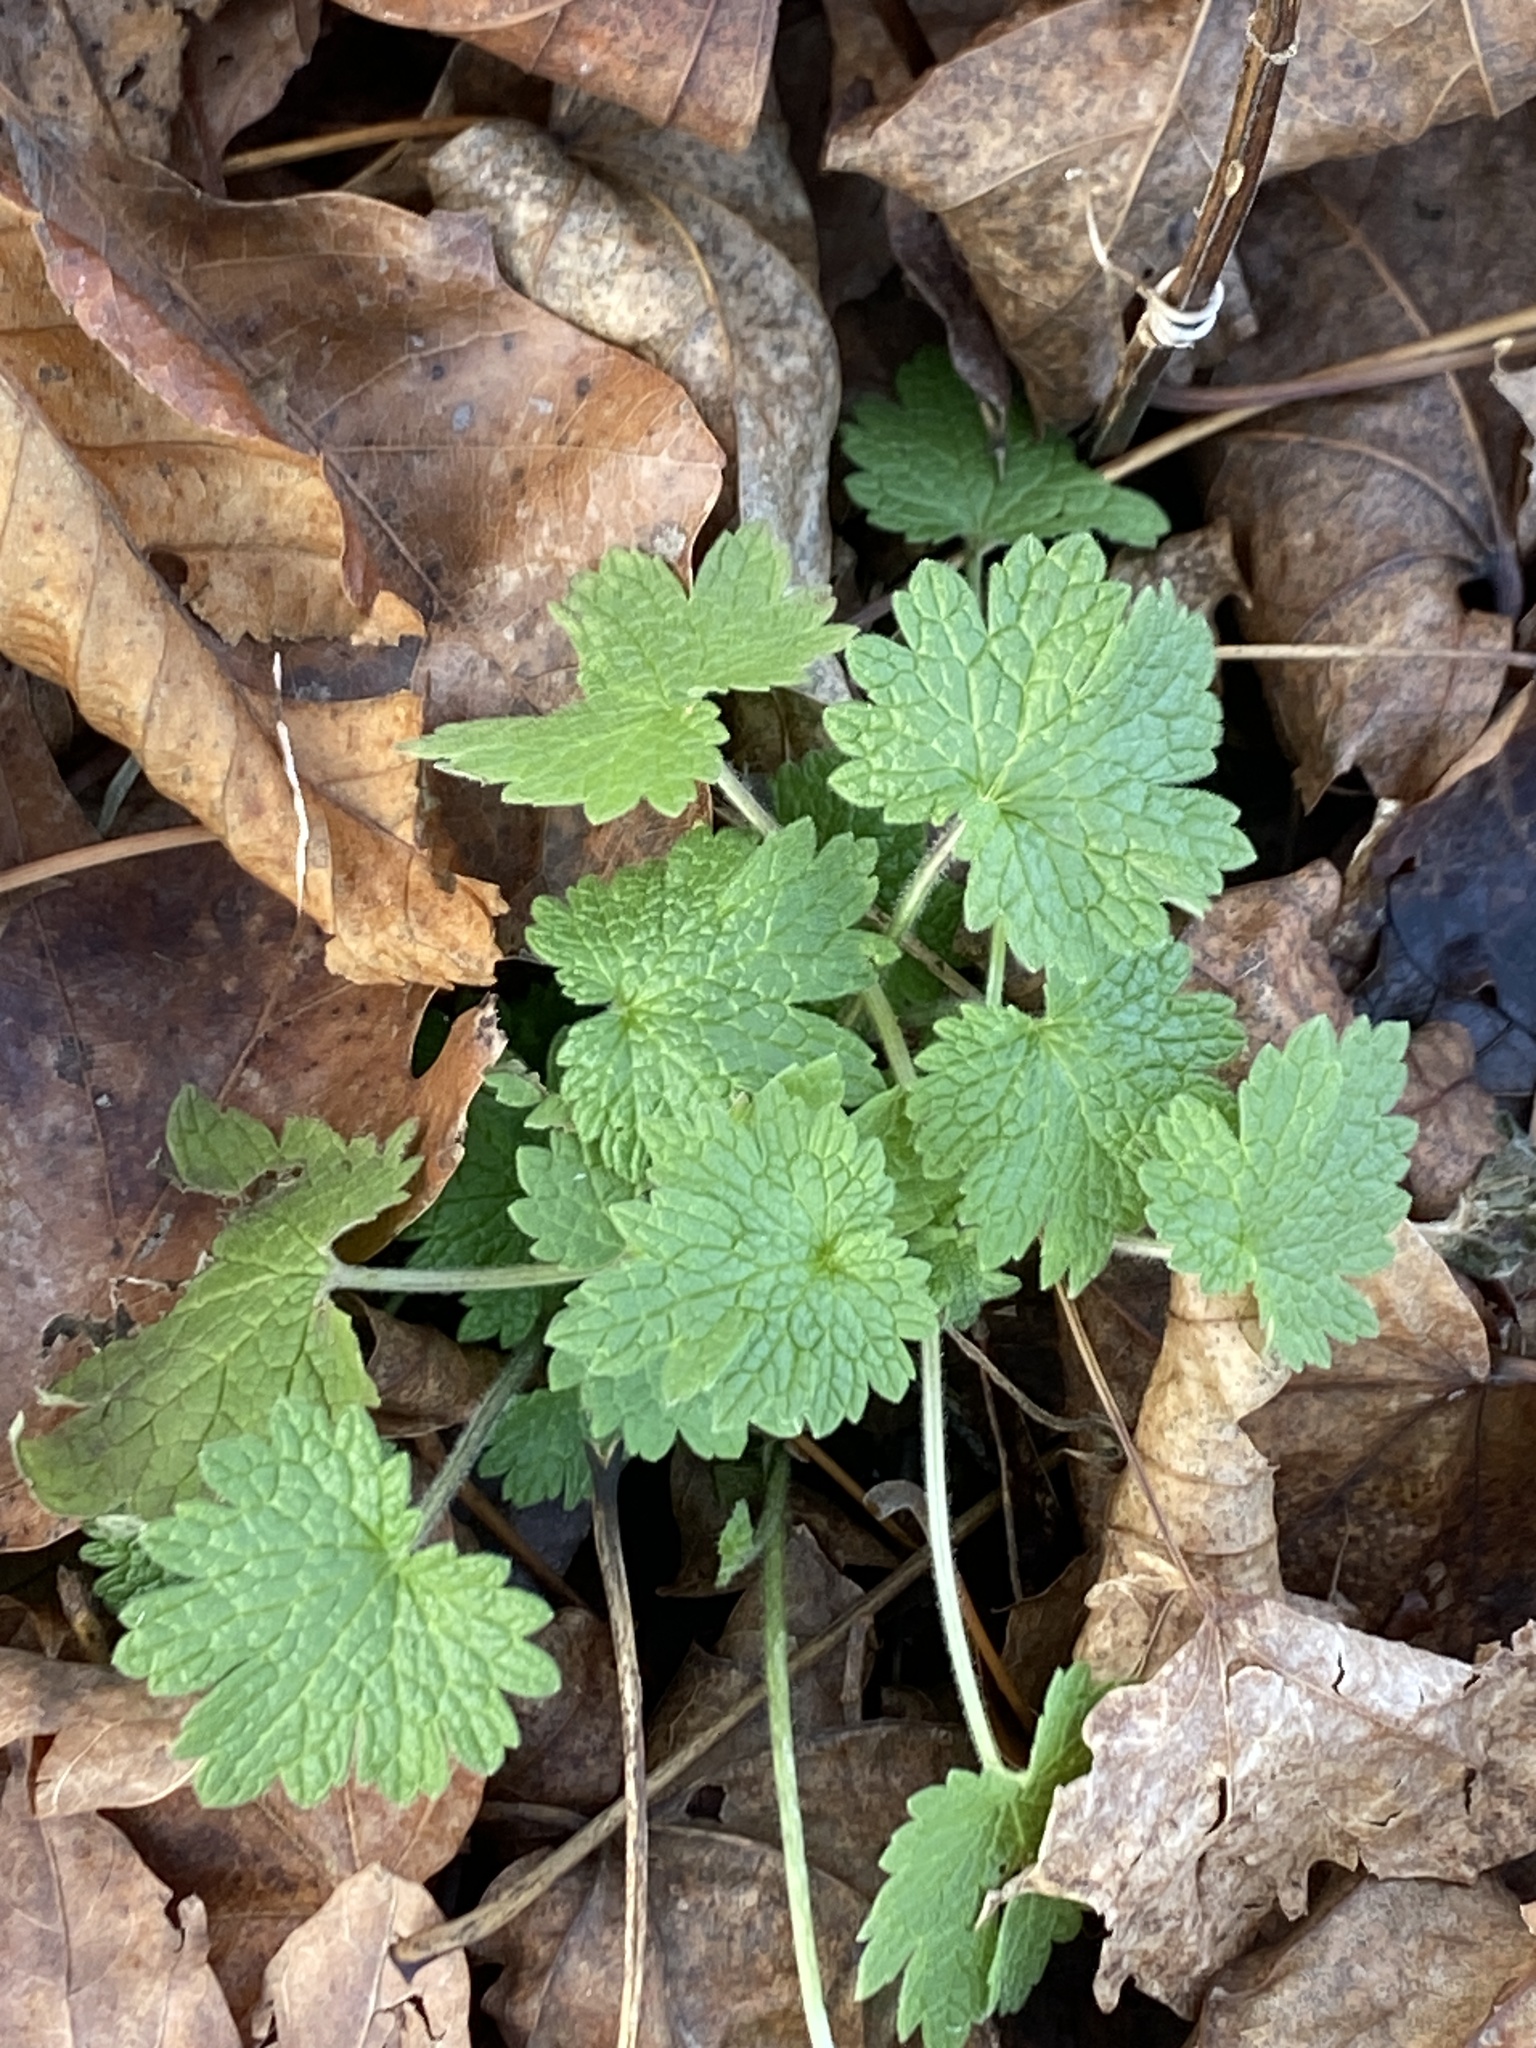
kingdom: Plantae
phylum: Tracheophyta
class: Magnoliopsida
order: Lamiales
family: Lamiaceae
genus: Leonurus
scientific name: Leonurus cardiaca
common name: Motherwort
